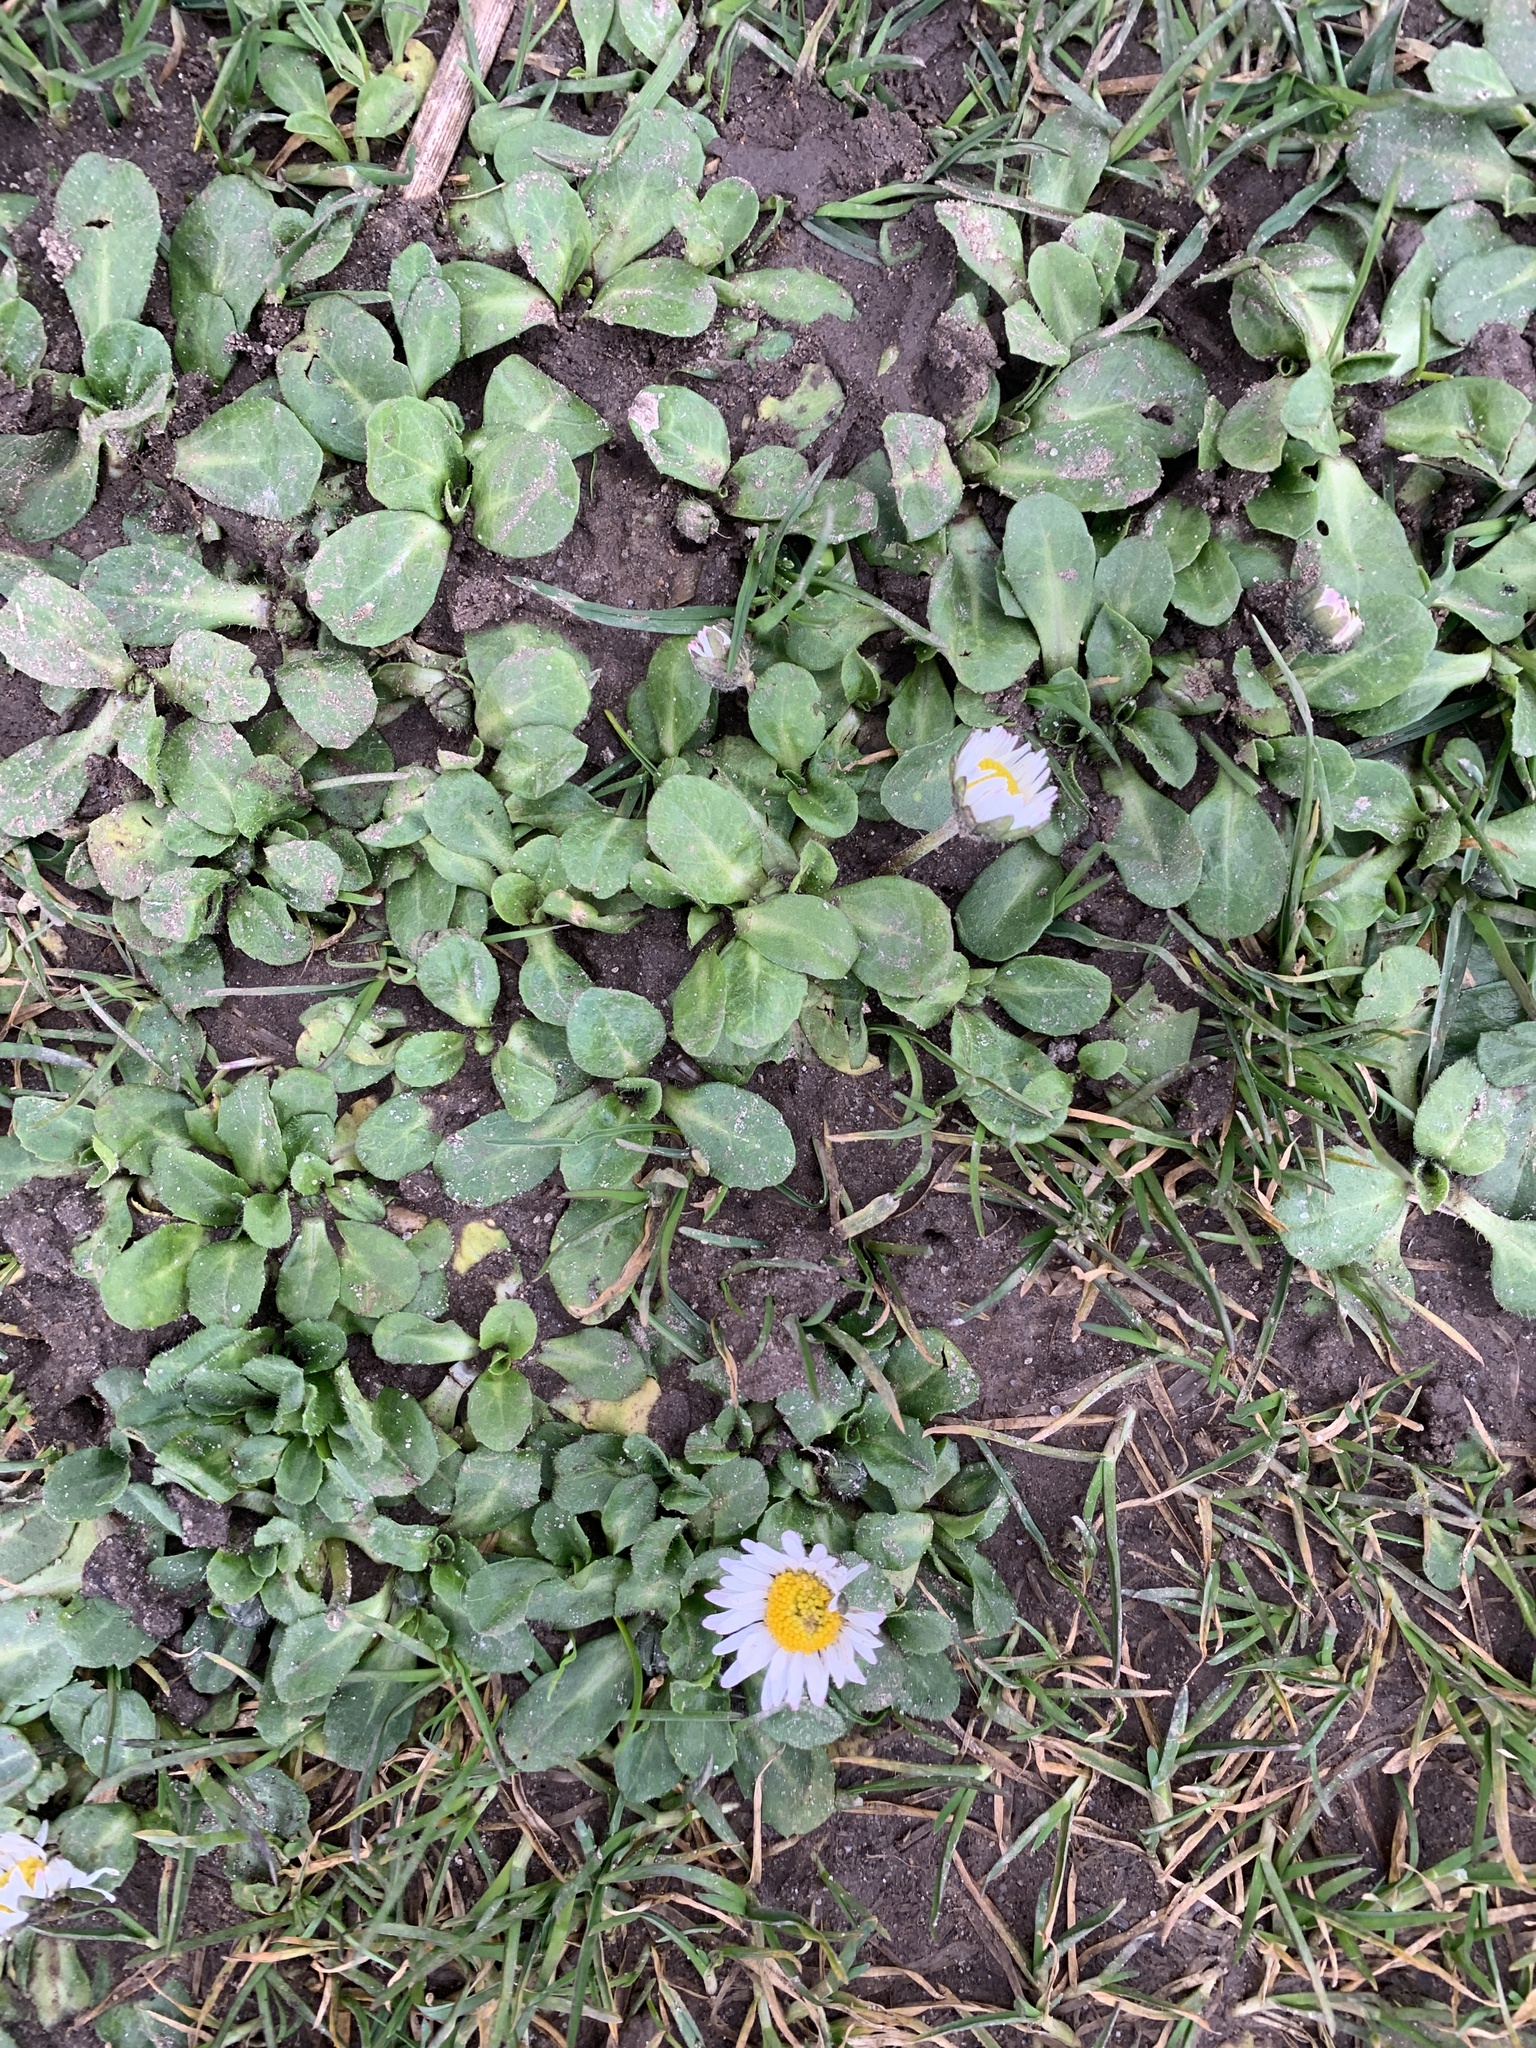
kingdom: Plantae
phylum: Tracheophyta
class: Magnoliopsida
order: Asterales
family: Asteraceae
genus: Bellis
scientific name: Bellis perennis
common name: Lawndaisy
